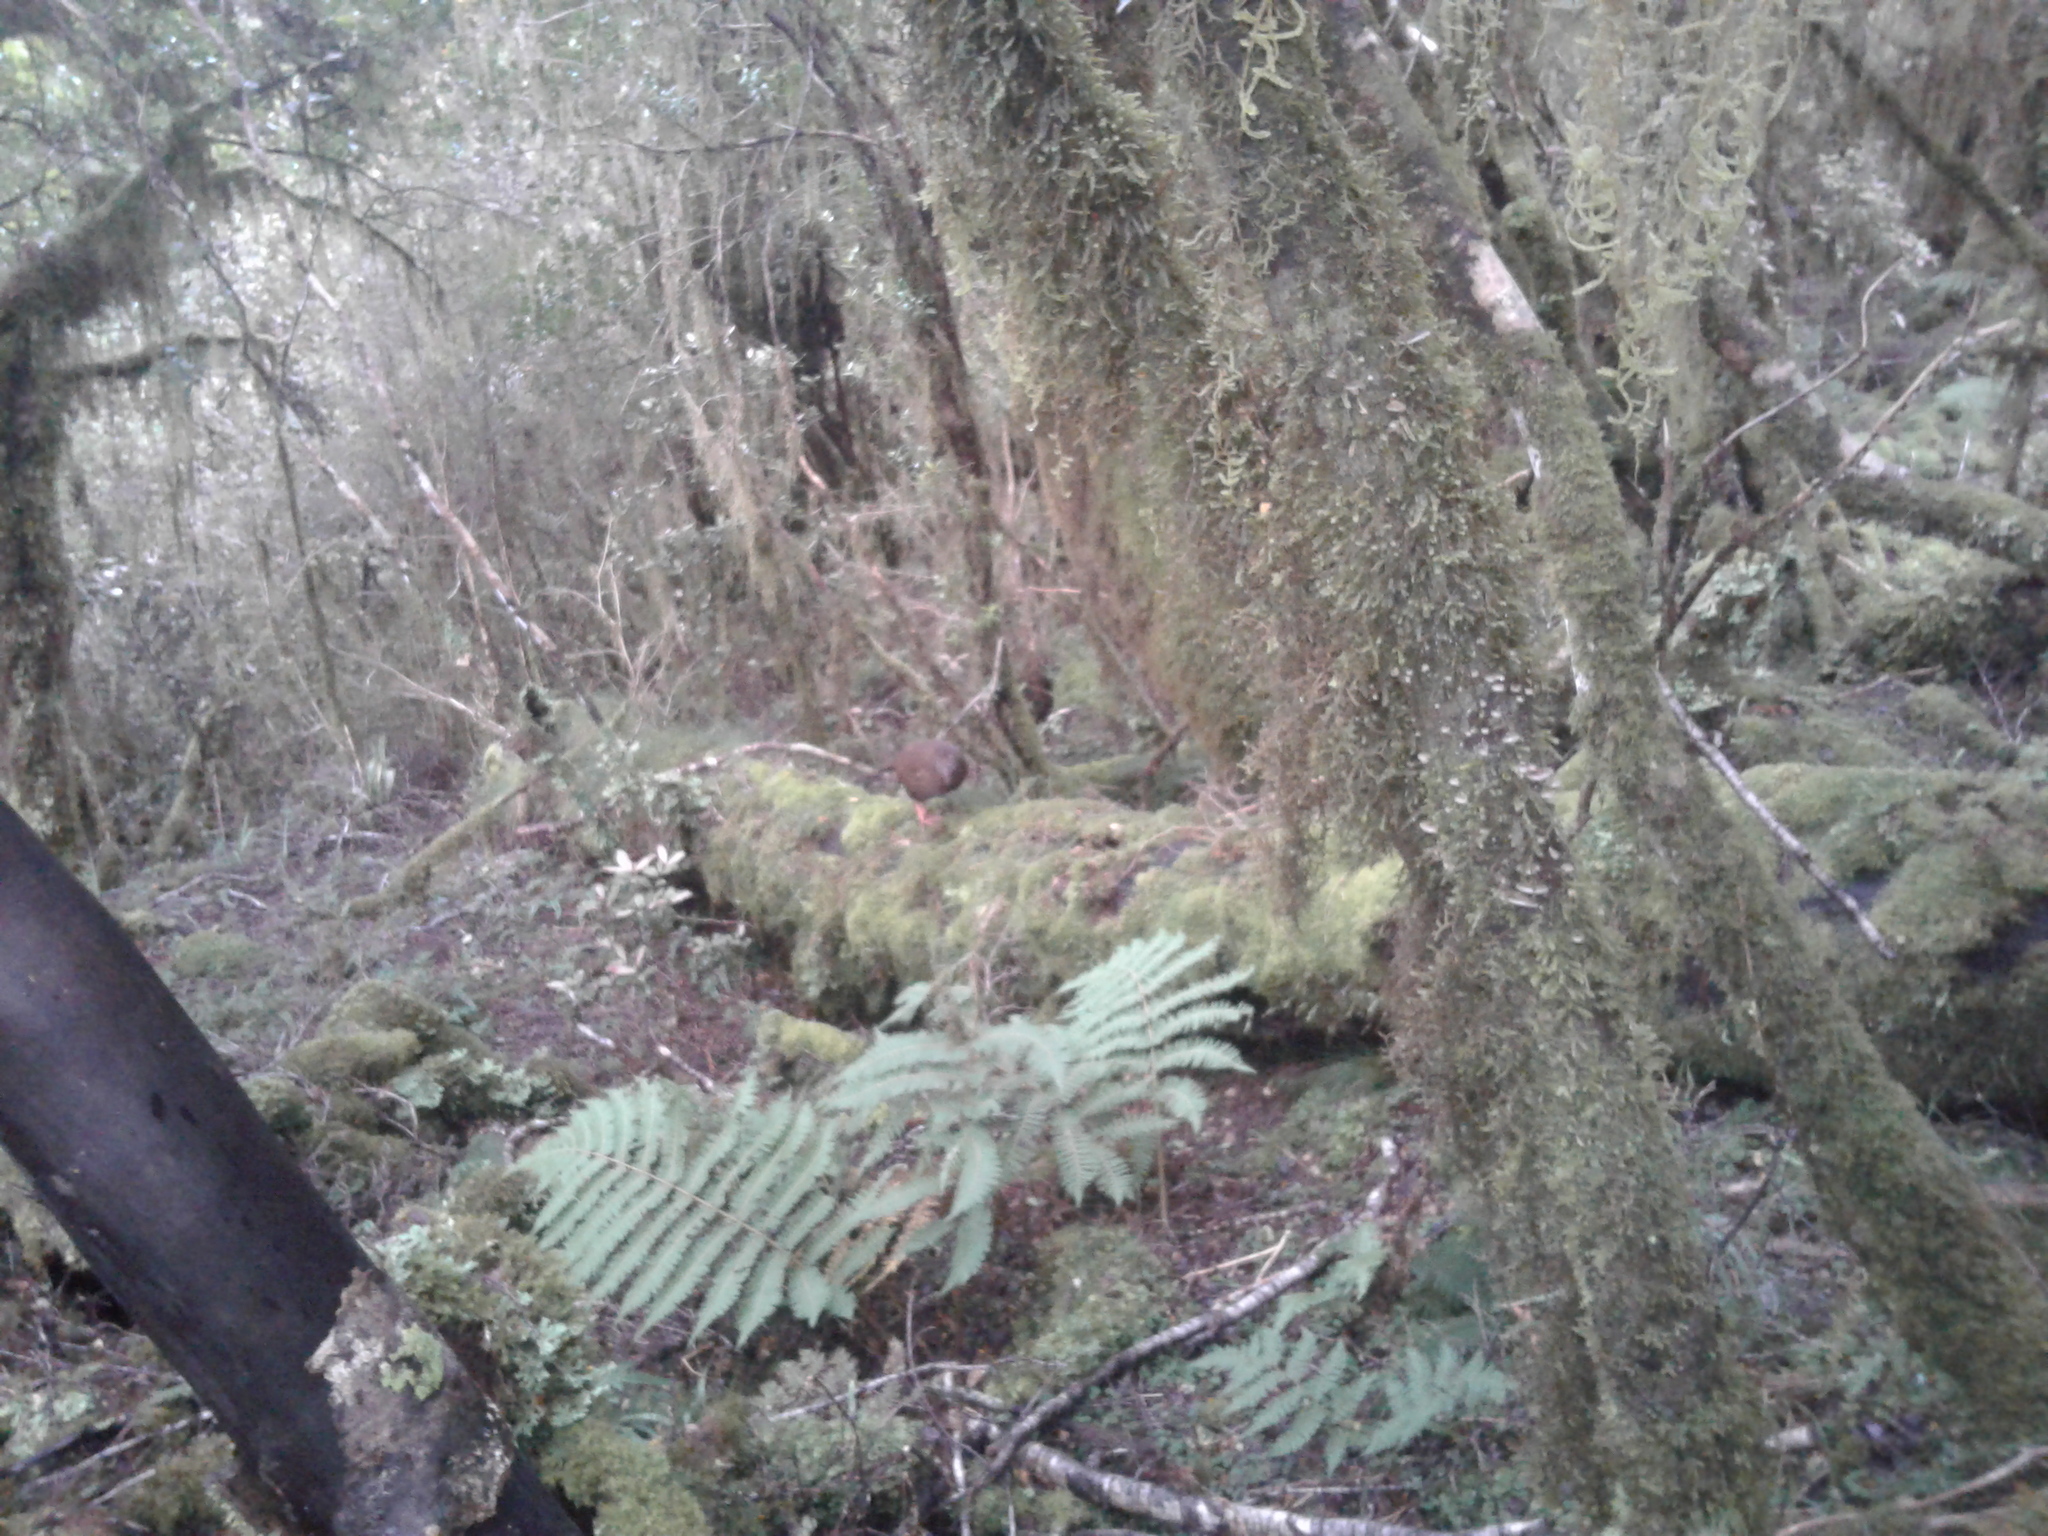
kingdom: Animalia
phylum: Chordata
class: Aves
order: Gruiformes
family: Rallidae
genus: Gallirallus
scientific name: Gallirallus australis
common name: Weka
